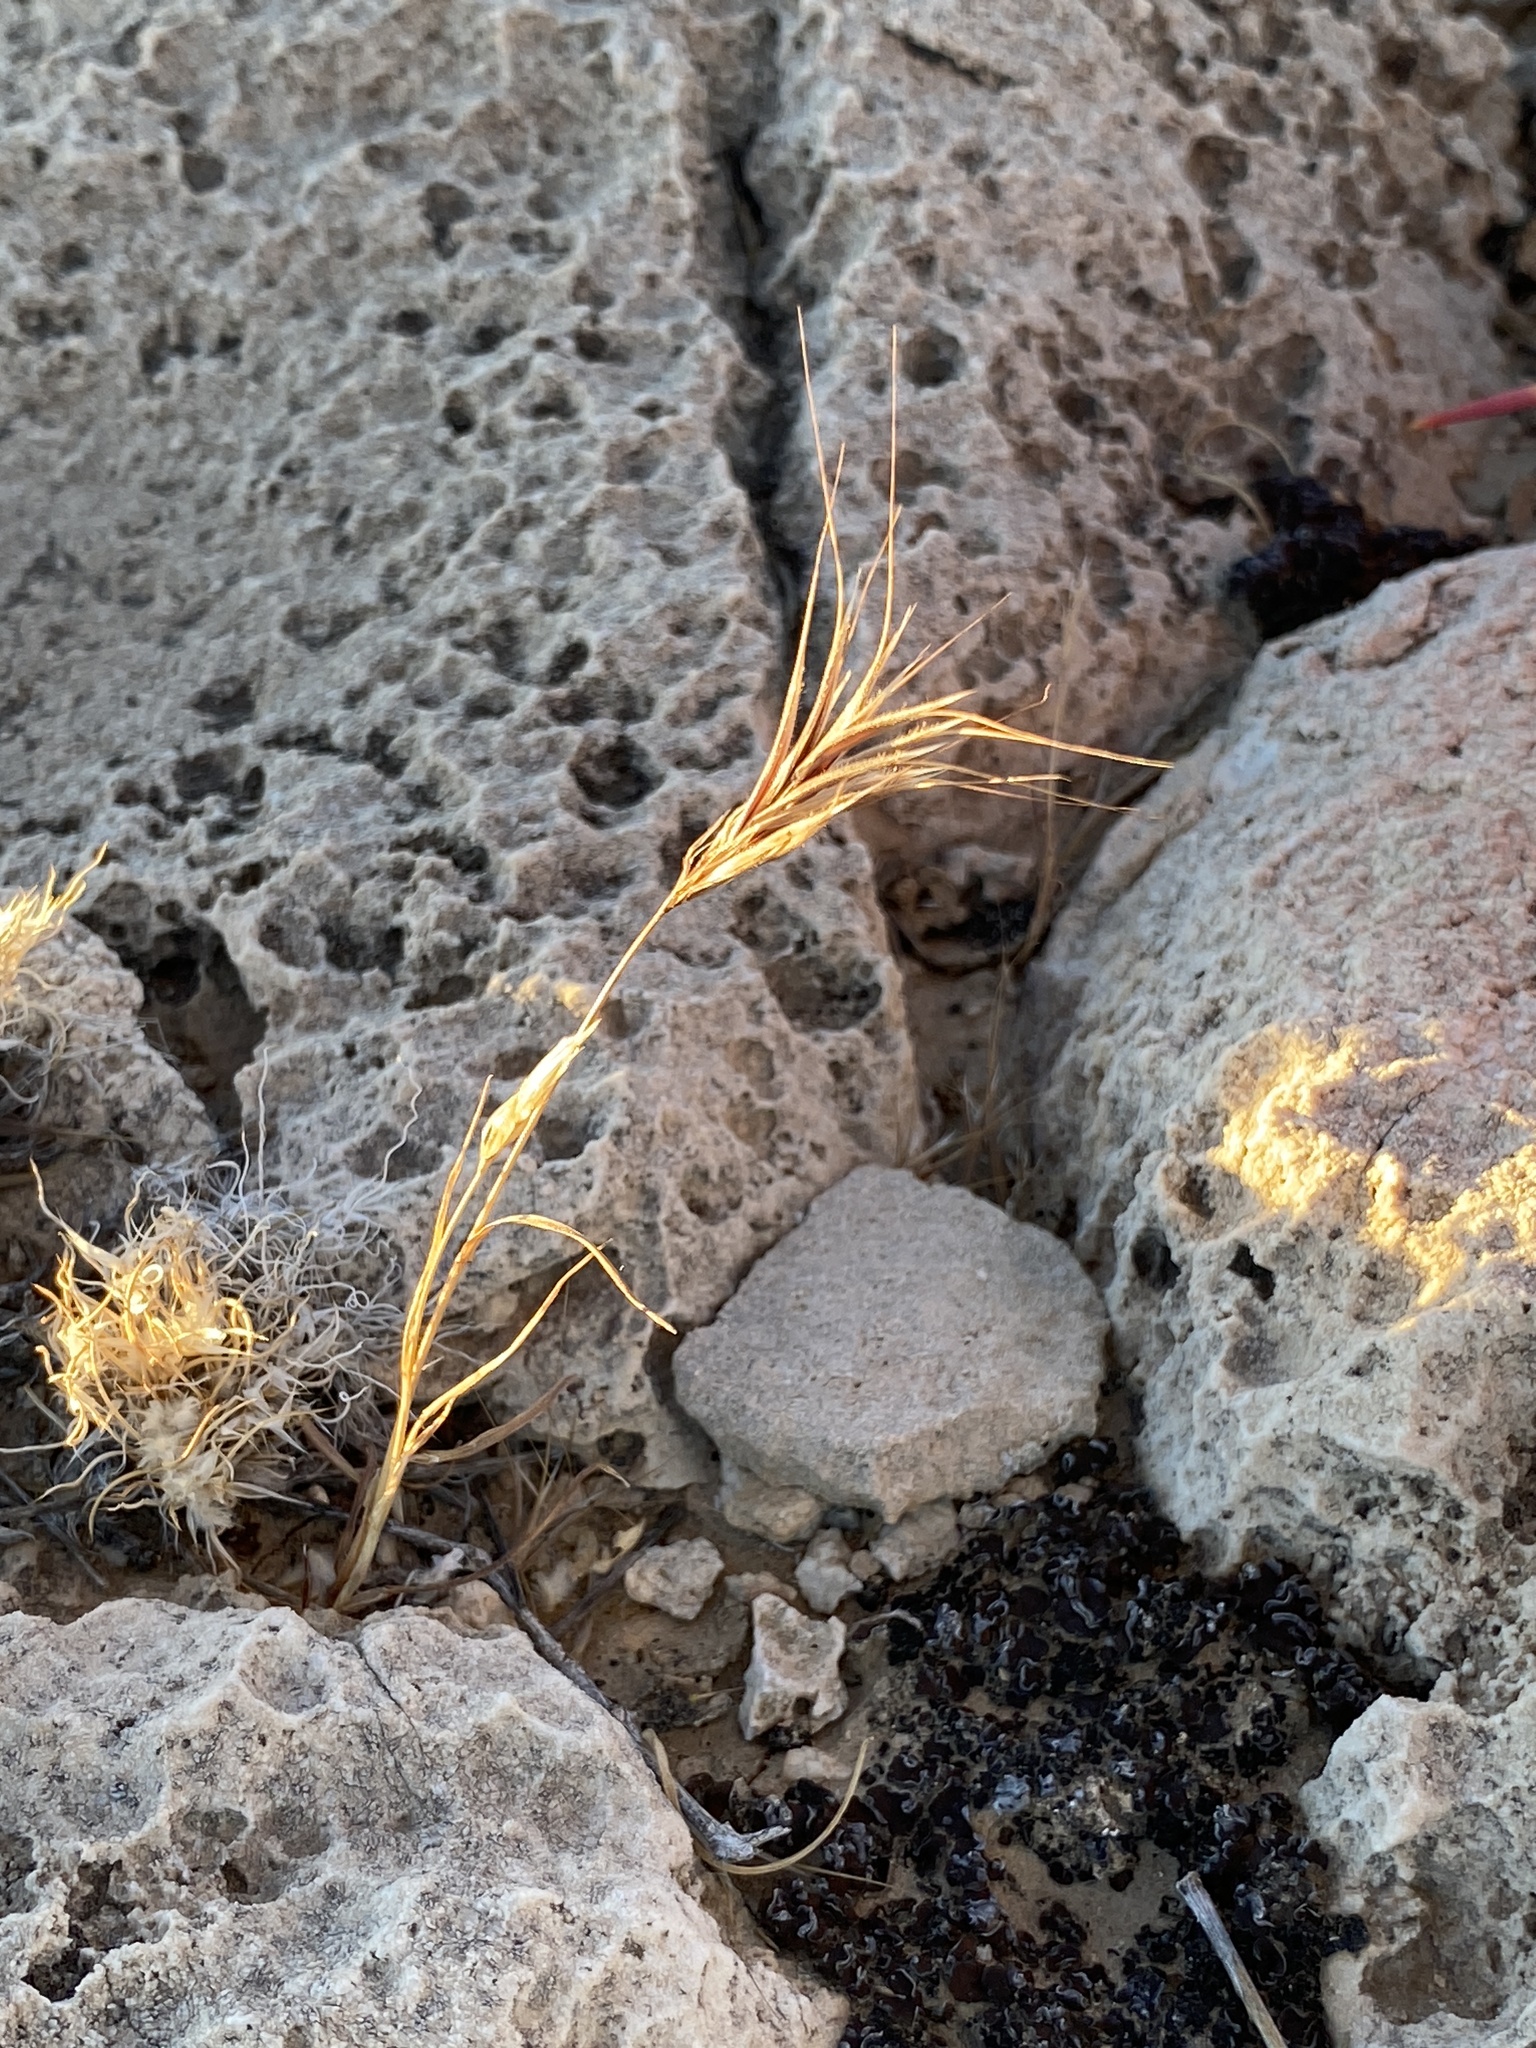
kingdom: Plantae
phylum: Tracheophyta
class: Liliopsida
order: Poales
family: Poaceae
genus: Bromus
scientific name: Bromus rubens
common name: Red brome
